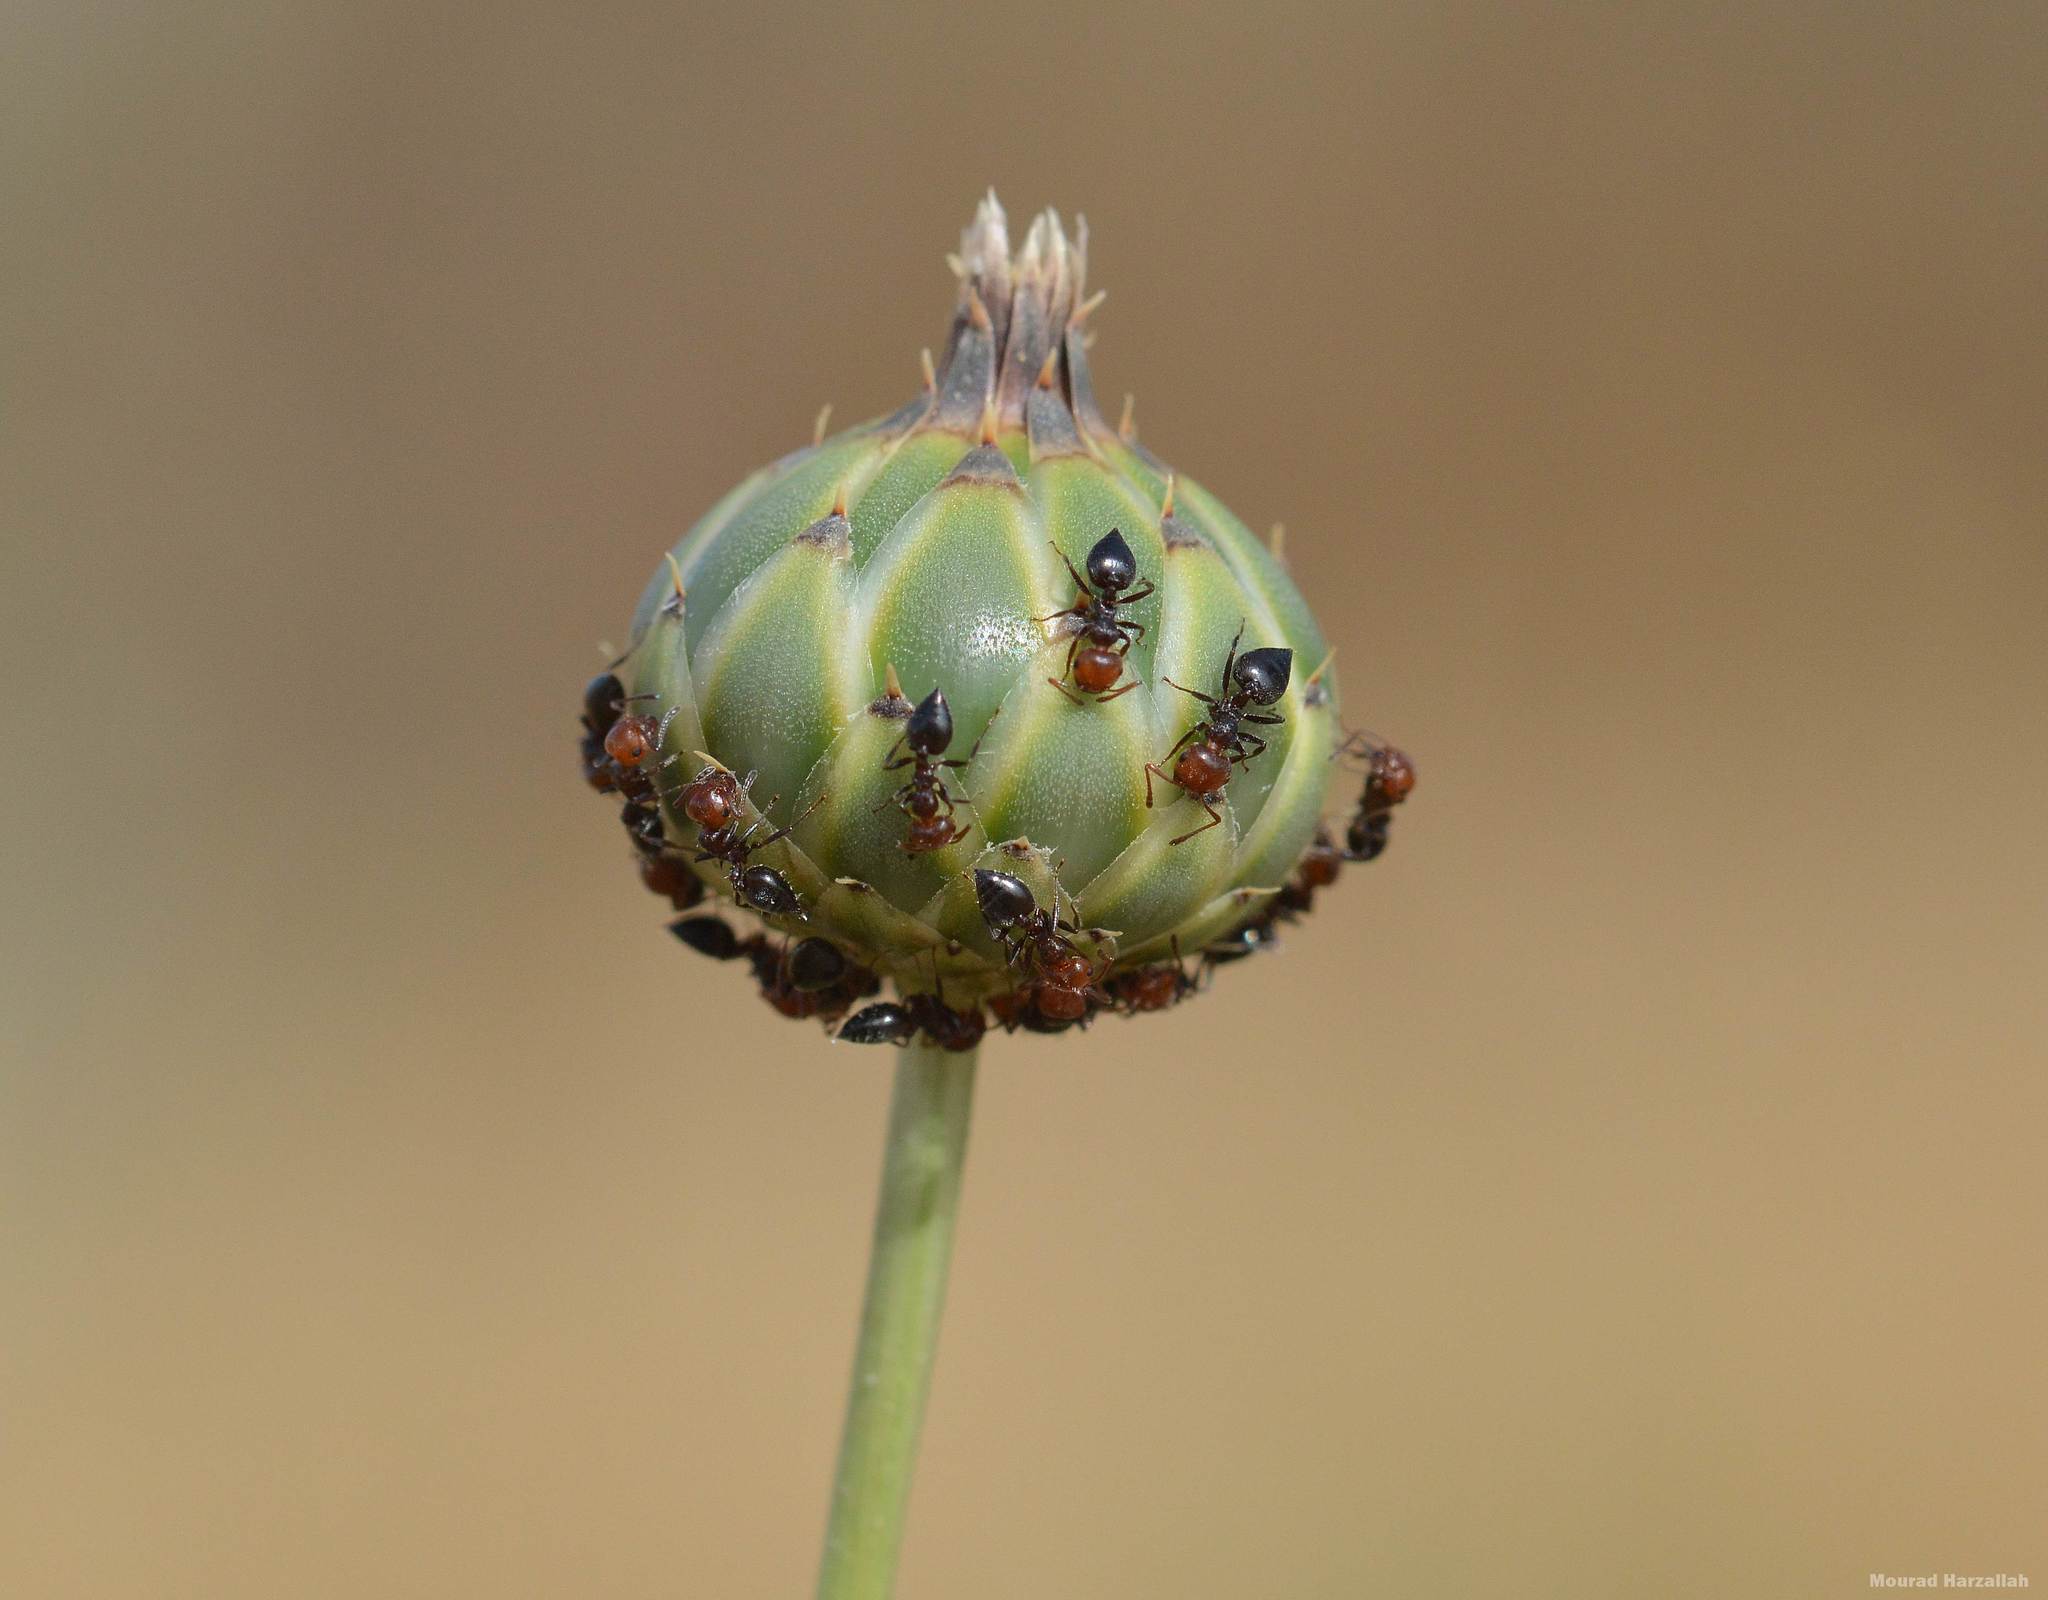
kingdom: Animalia
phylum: Arthropoda
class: Insecta
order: Hymenoptera
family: Formicidae
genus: Crematogaster
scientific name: Crematogaster scutellaris
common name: Fourmi du liège
